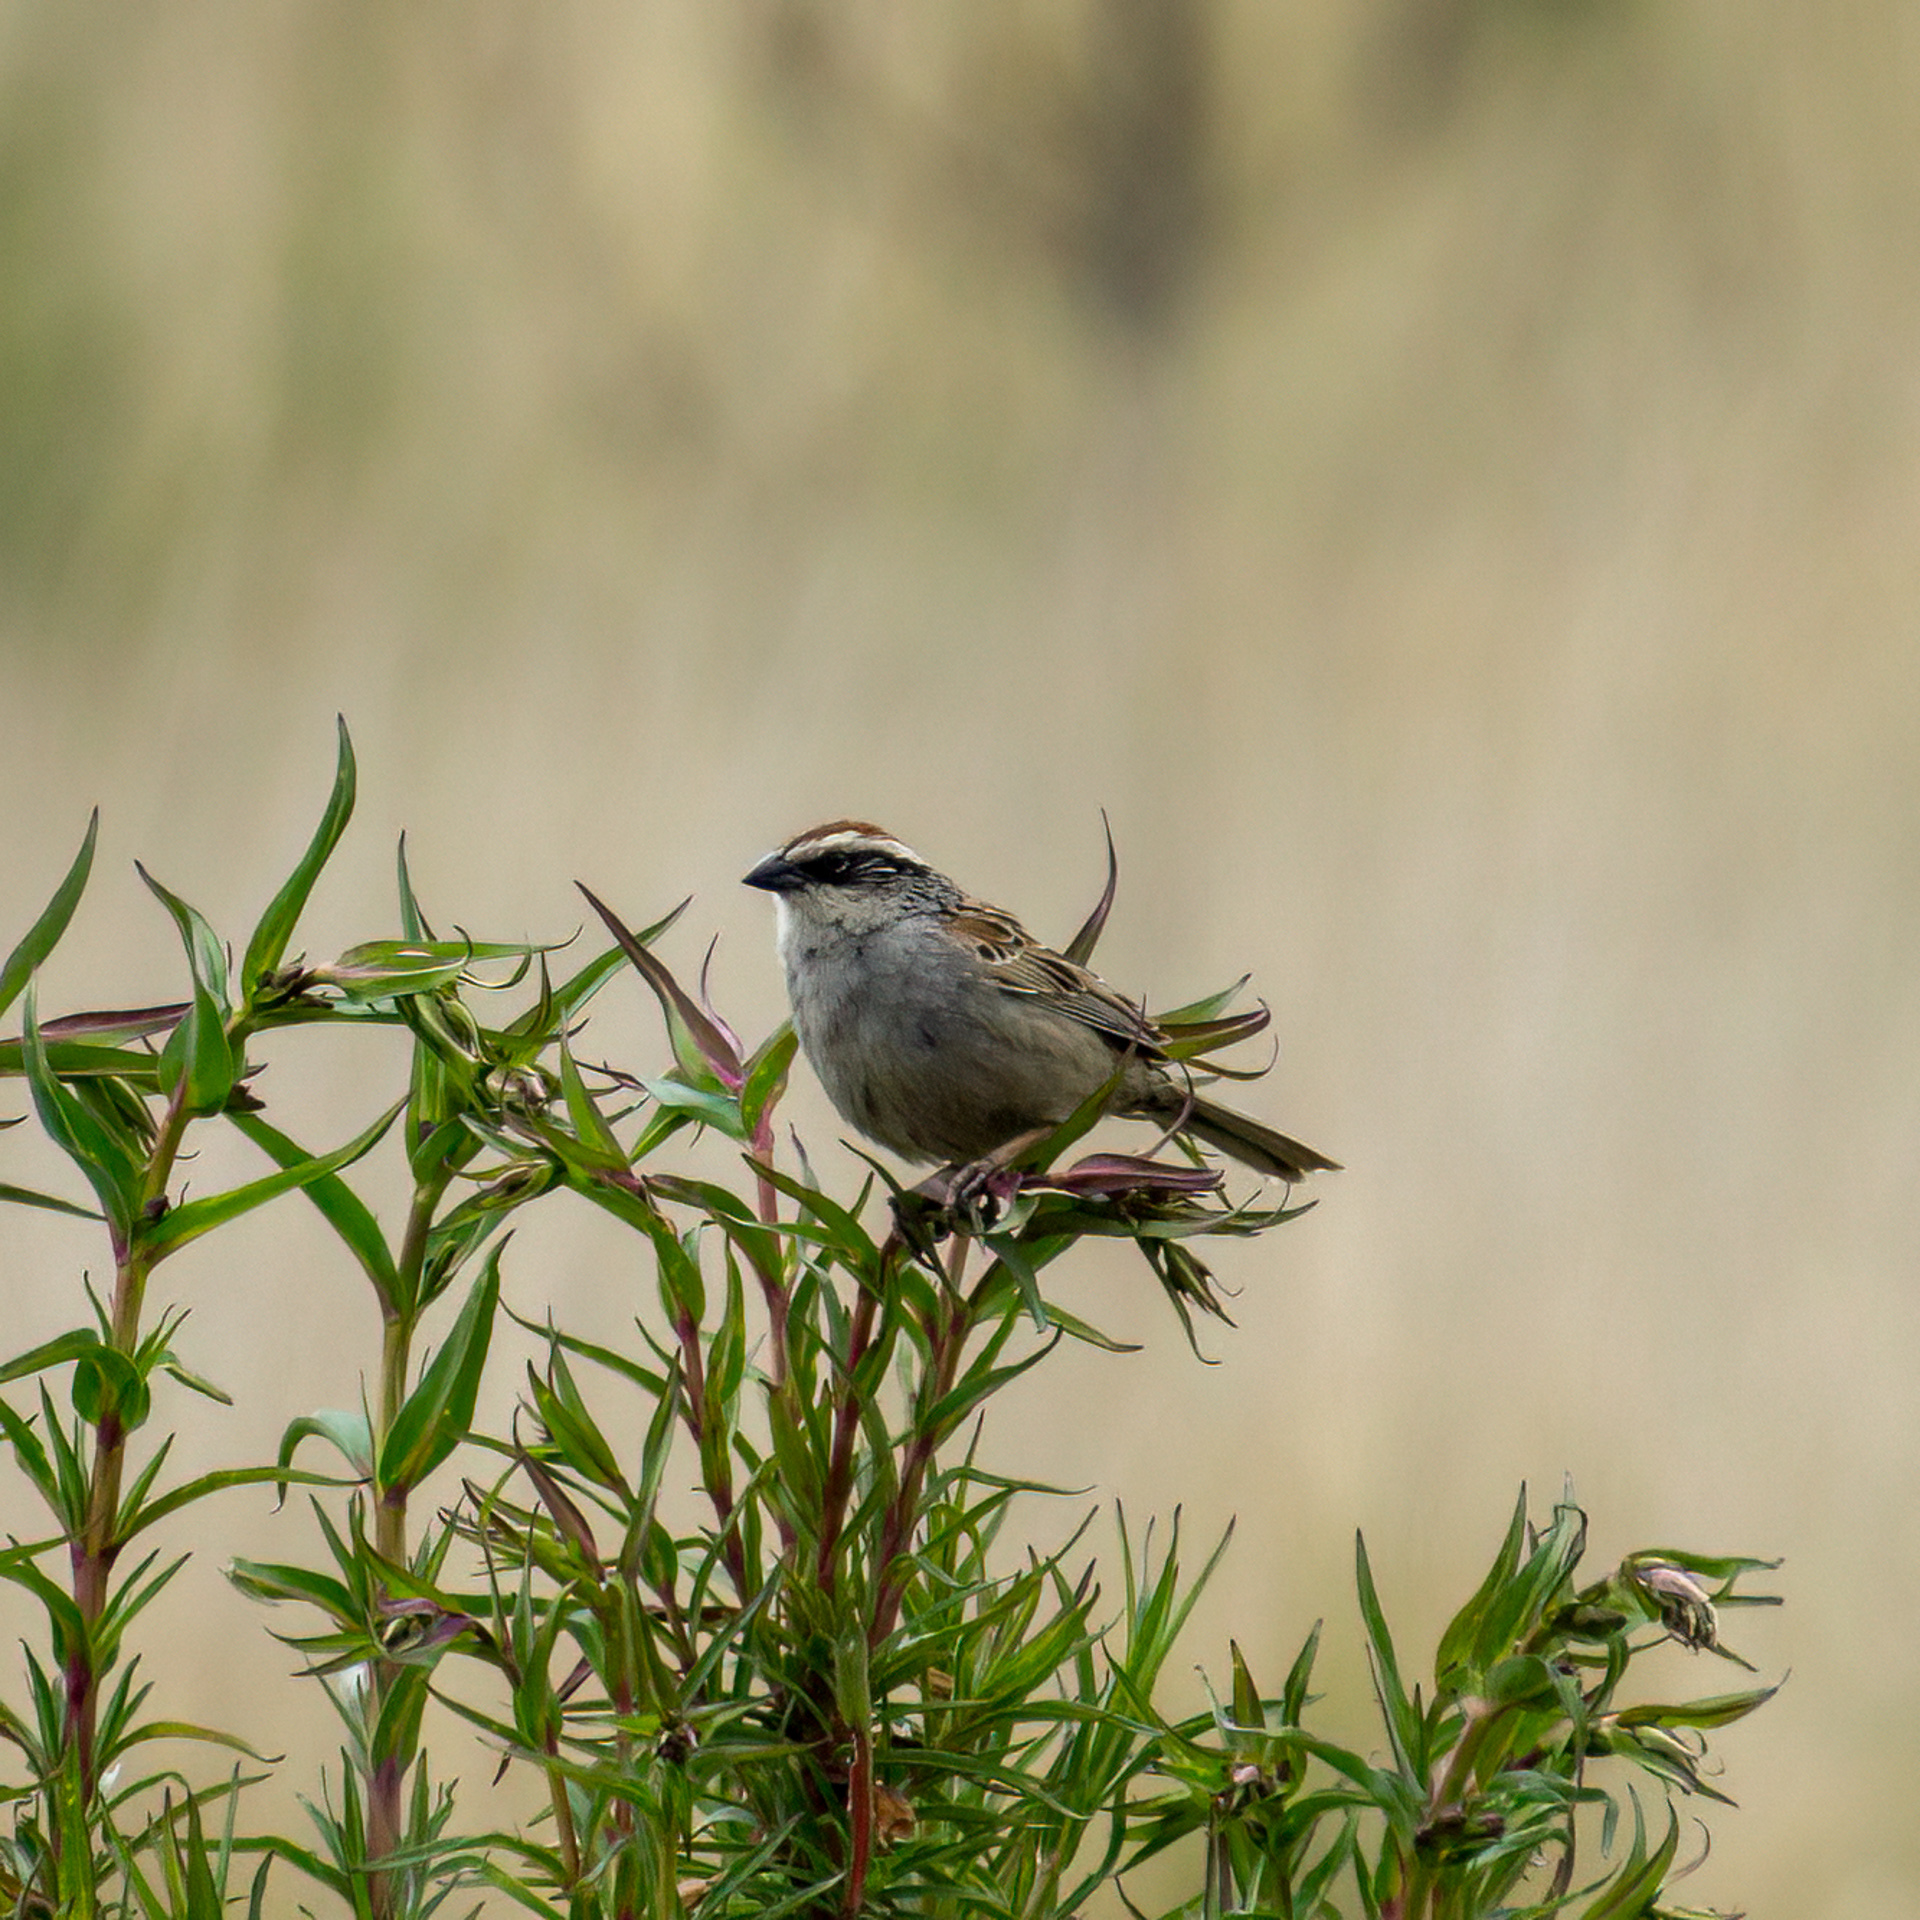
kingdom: Animalia
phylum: Chordata
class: Aves
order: Passeriformes
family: Passerellidae
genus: Oriturus
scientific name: Oriturus superciliosus
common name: Striped sparrow
